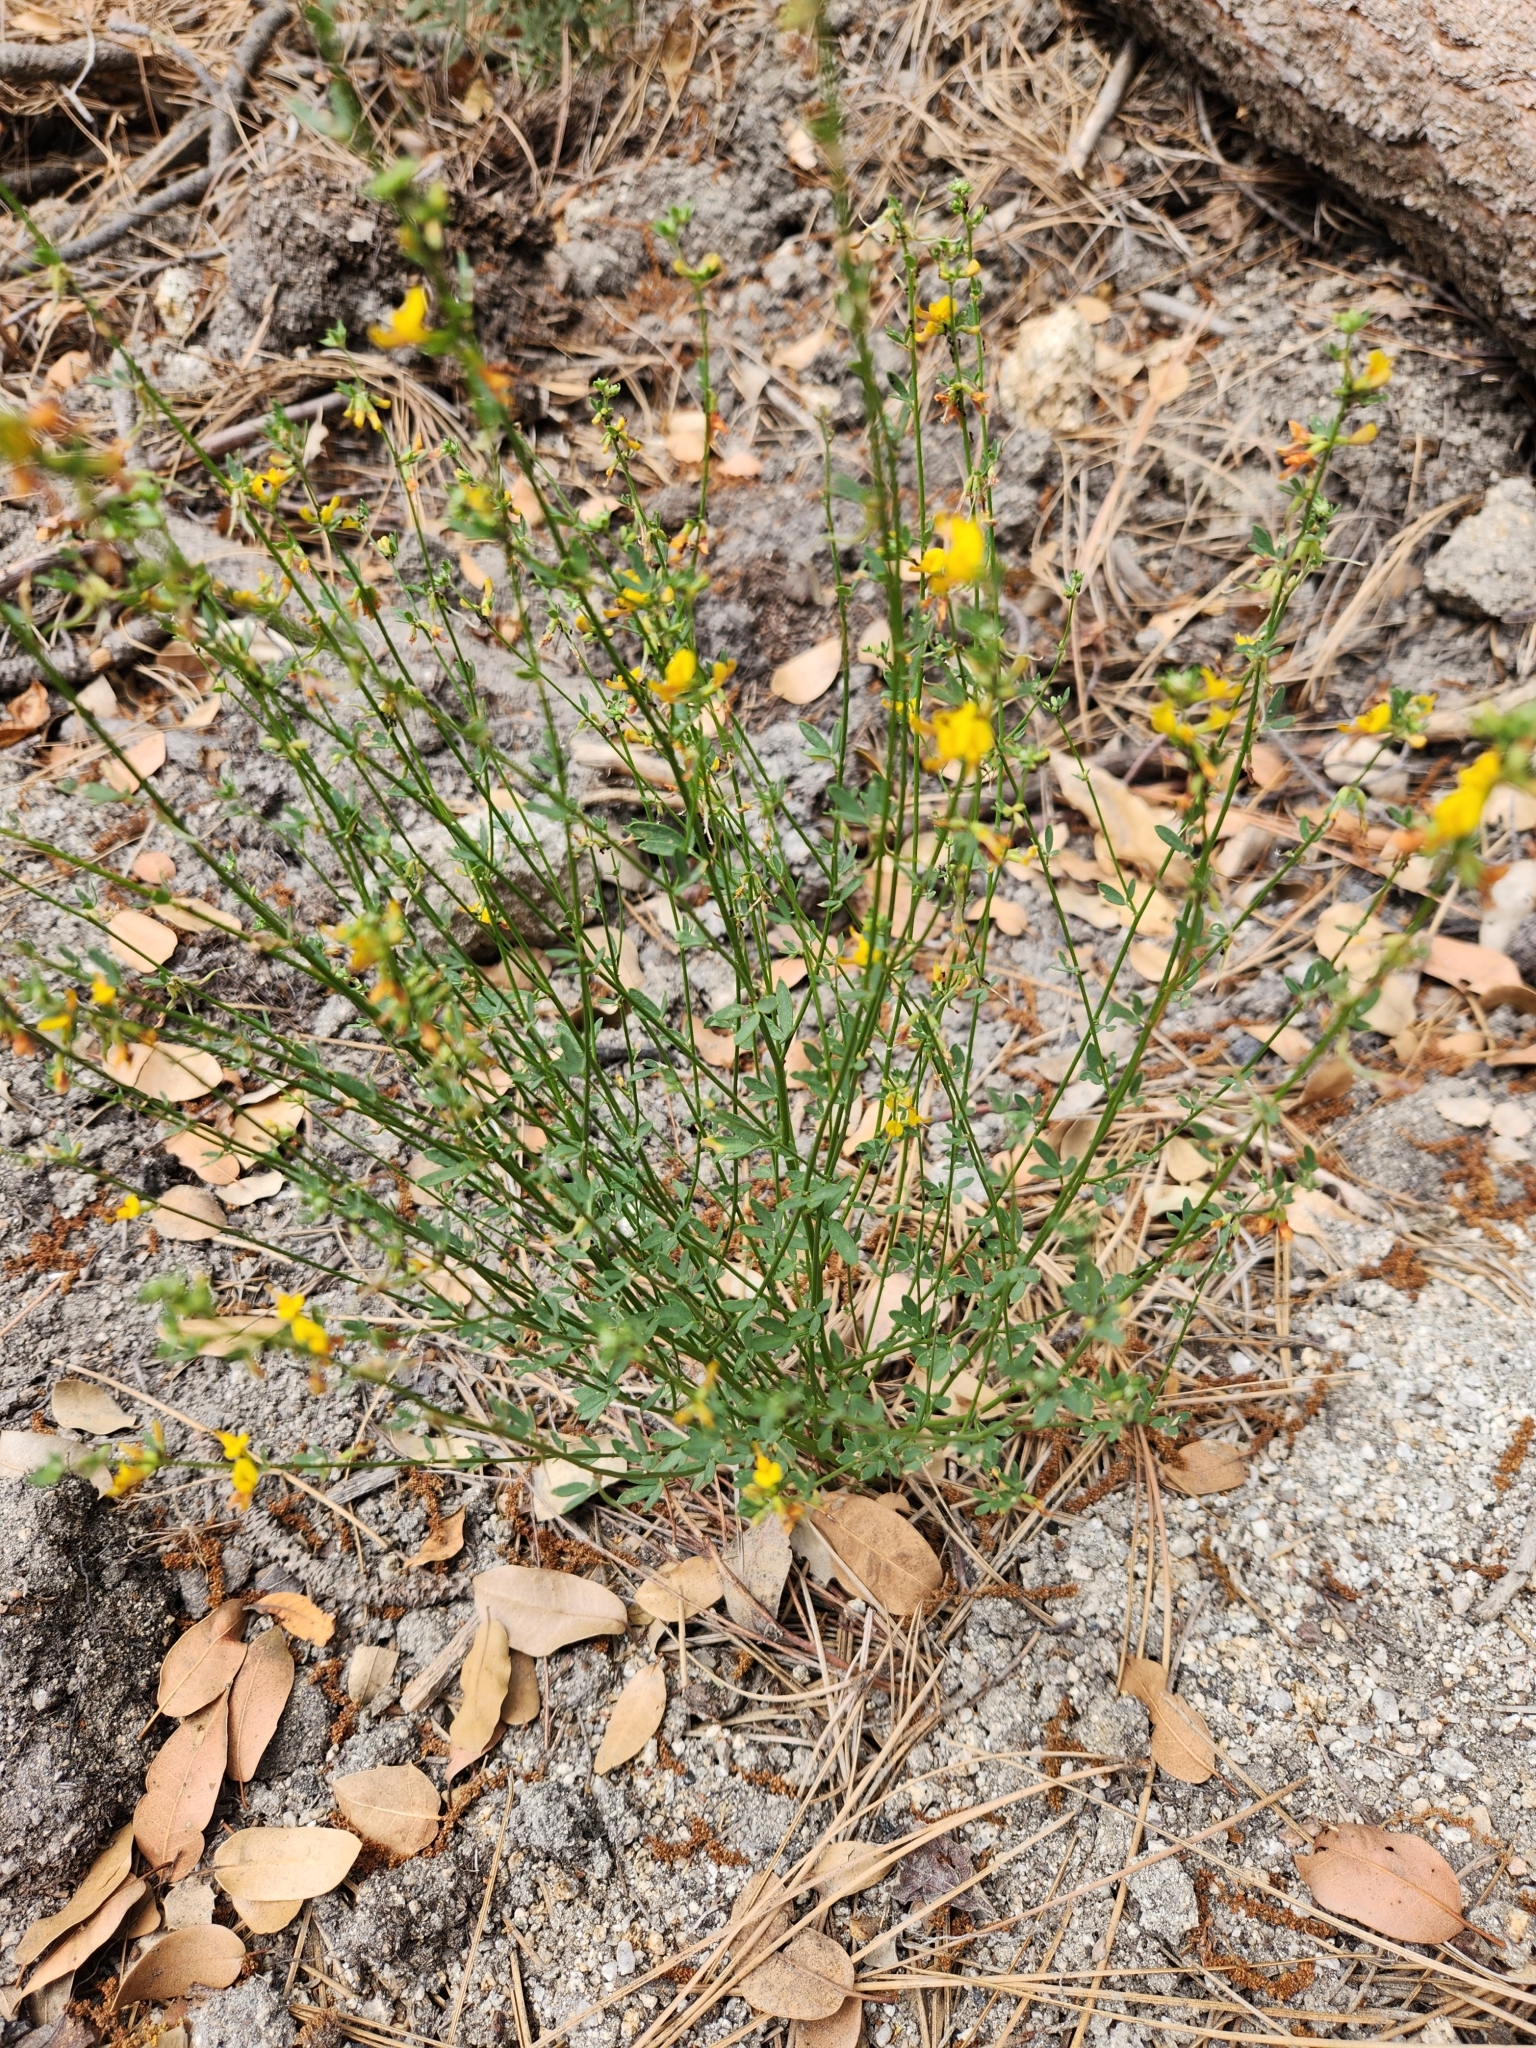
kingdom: Plantae
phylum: Tracheophyta
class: Magnoliopsida
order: Fabales
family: Fabaceae
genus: Acmispon
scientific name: Acmispon glaber
